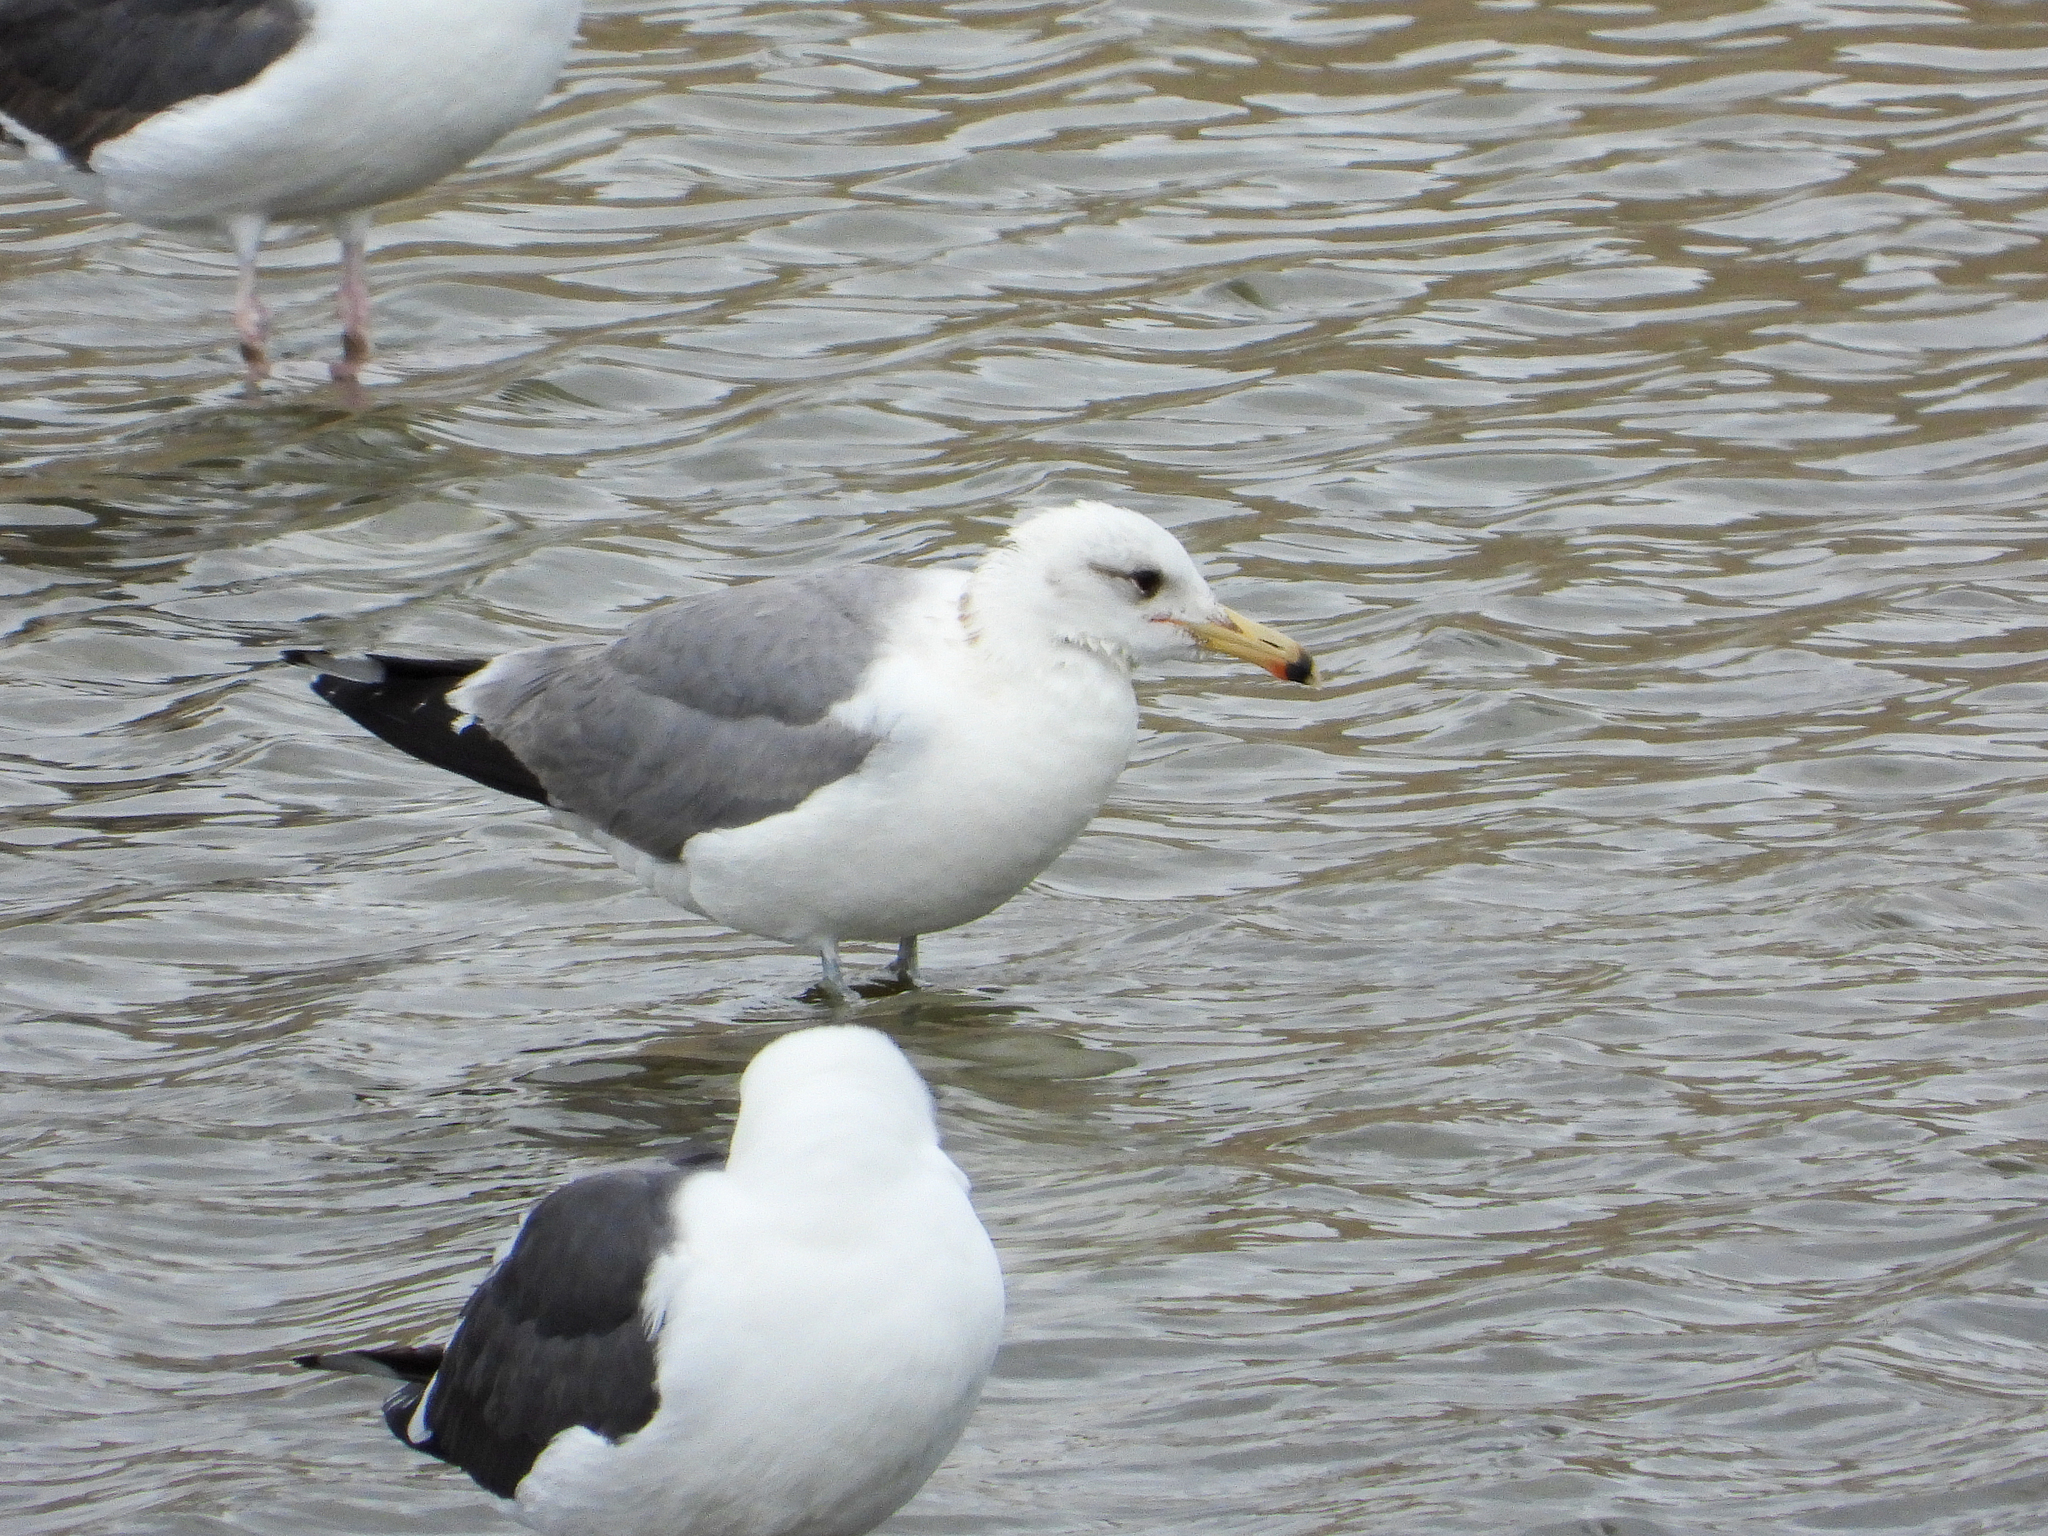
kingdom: Animalia
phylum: Chordata
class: Aves
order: Charadriiformes
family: Laridae
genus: Larus
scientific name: Larus californicus
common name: California gull
